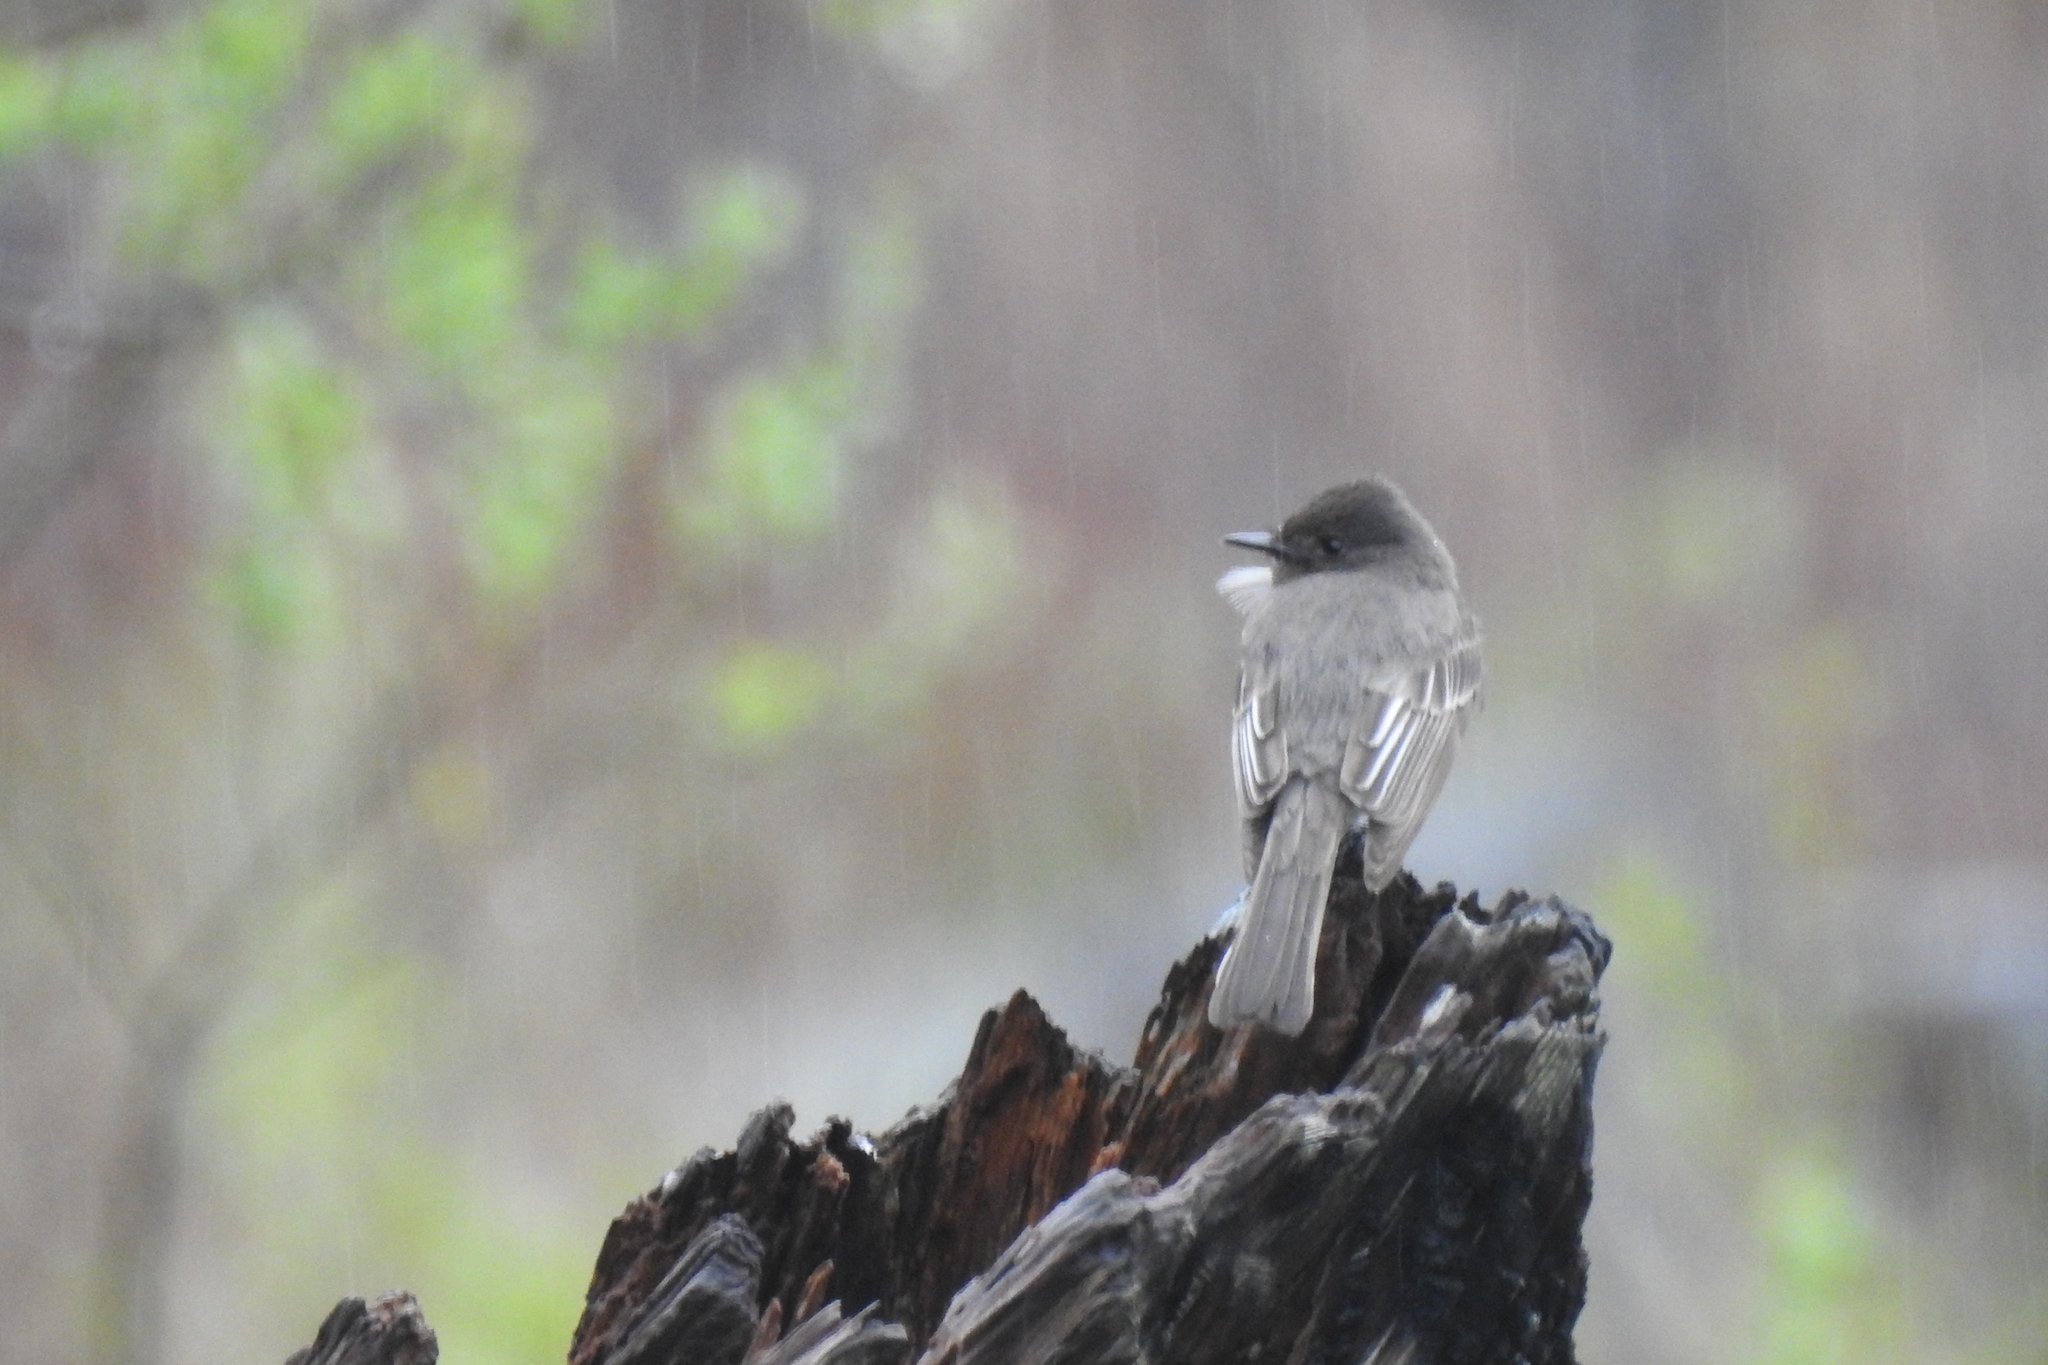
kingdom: Animalia
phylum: Chordata
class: Aves
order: Passeriformes
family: Tyrannidae
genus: Sayornis
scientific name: Sayornis nigricans
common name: Black phoebe
